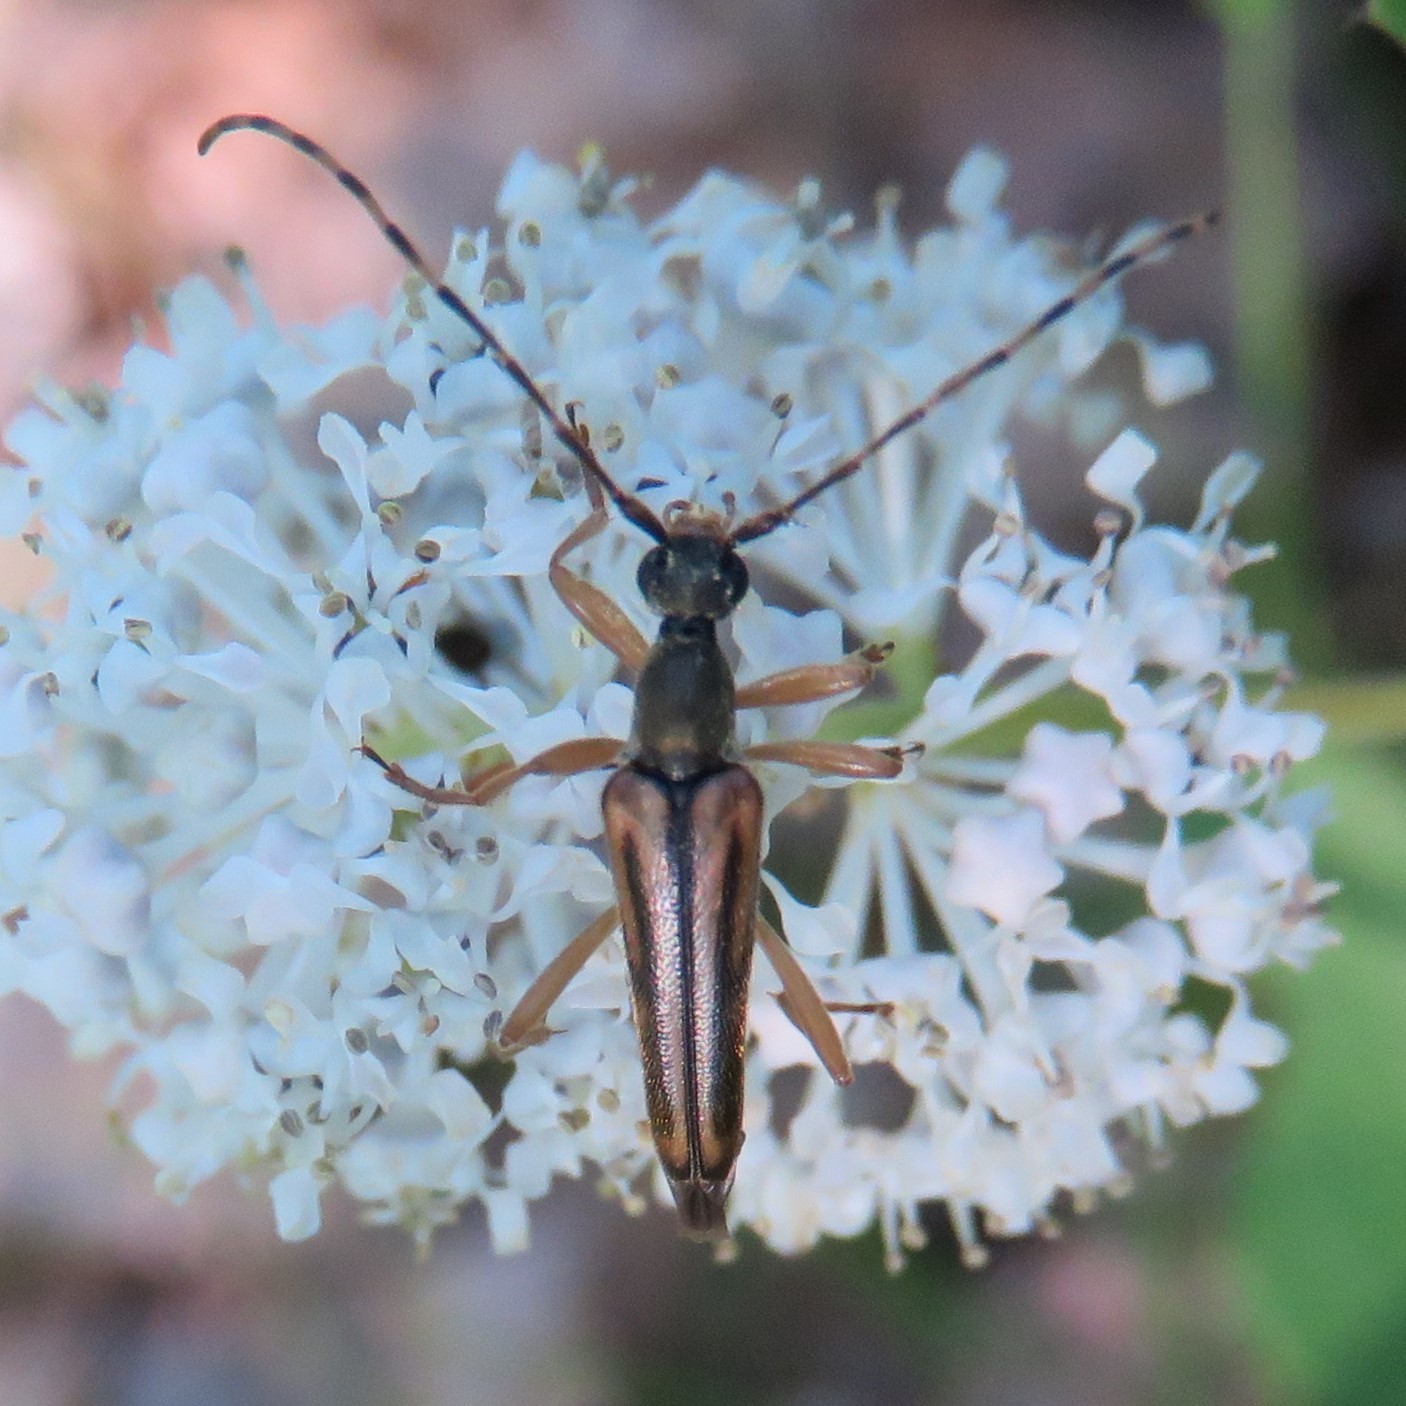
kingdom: Animalia
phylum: Arthropoda
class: Insecta
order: Coleoptera
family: Cerambycidae
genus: Analeptura
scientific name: Analeptura lineola
